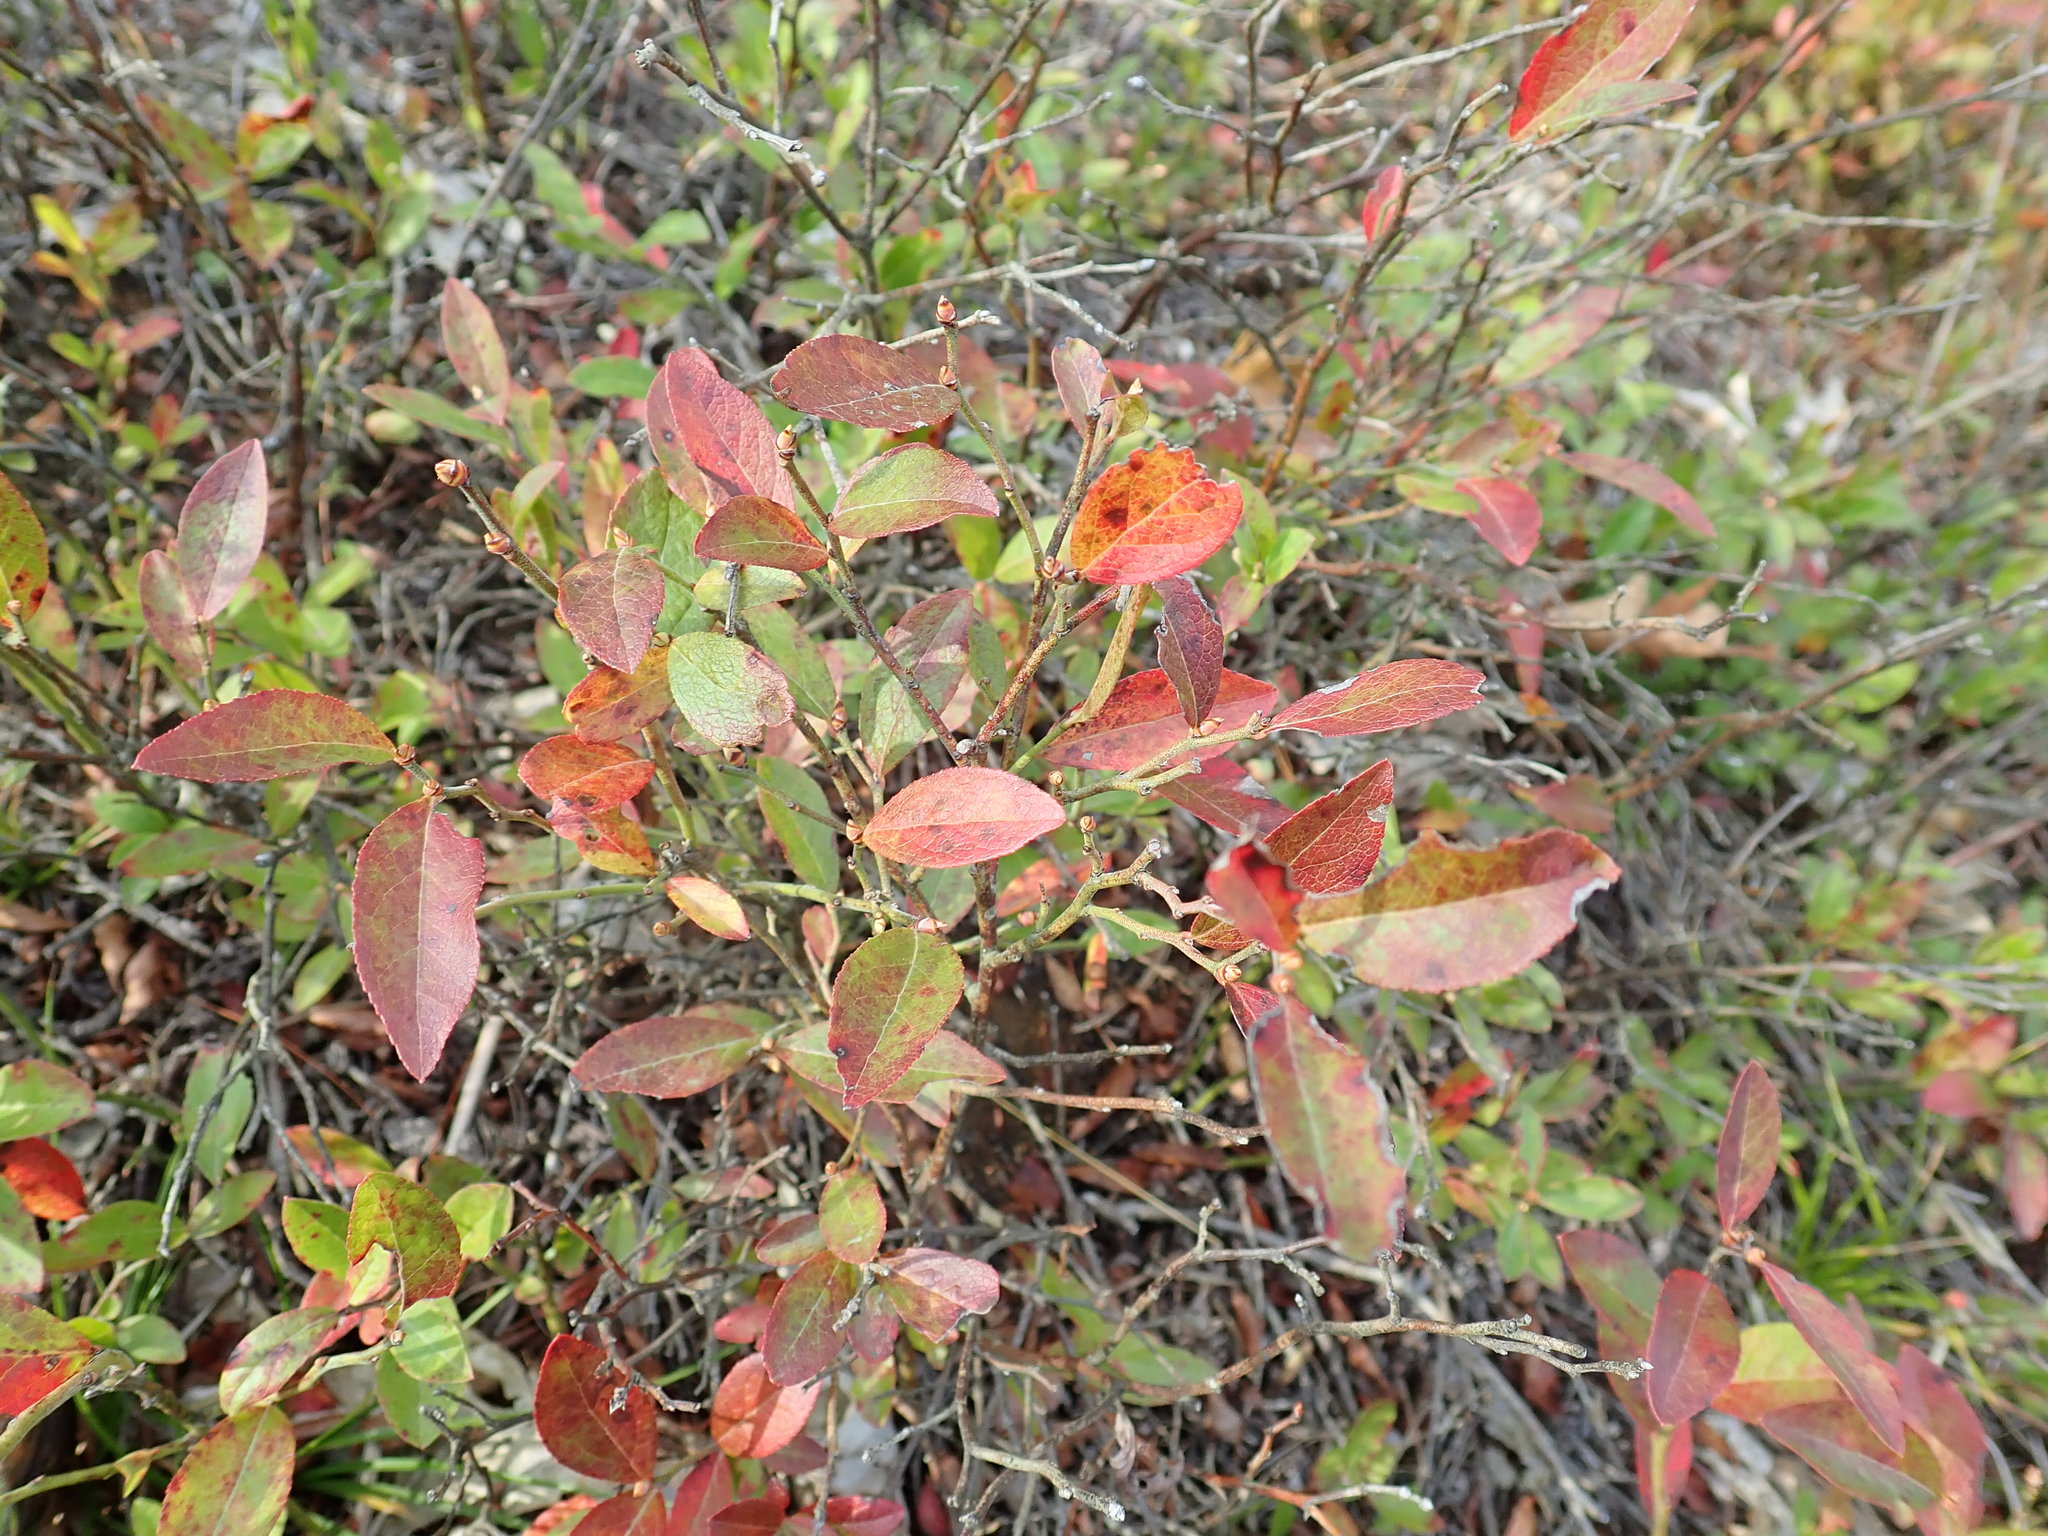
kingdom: Plantae
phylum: Tracheophyta
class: Magnoliopsida
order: Ericales
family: Ericaceae
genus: Vaccinium
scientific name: Vaccinium angustifolium
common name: Early lowbush blueberry
